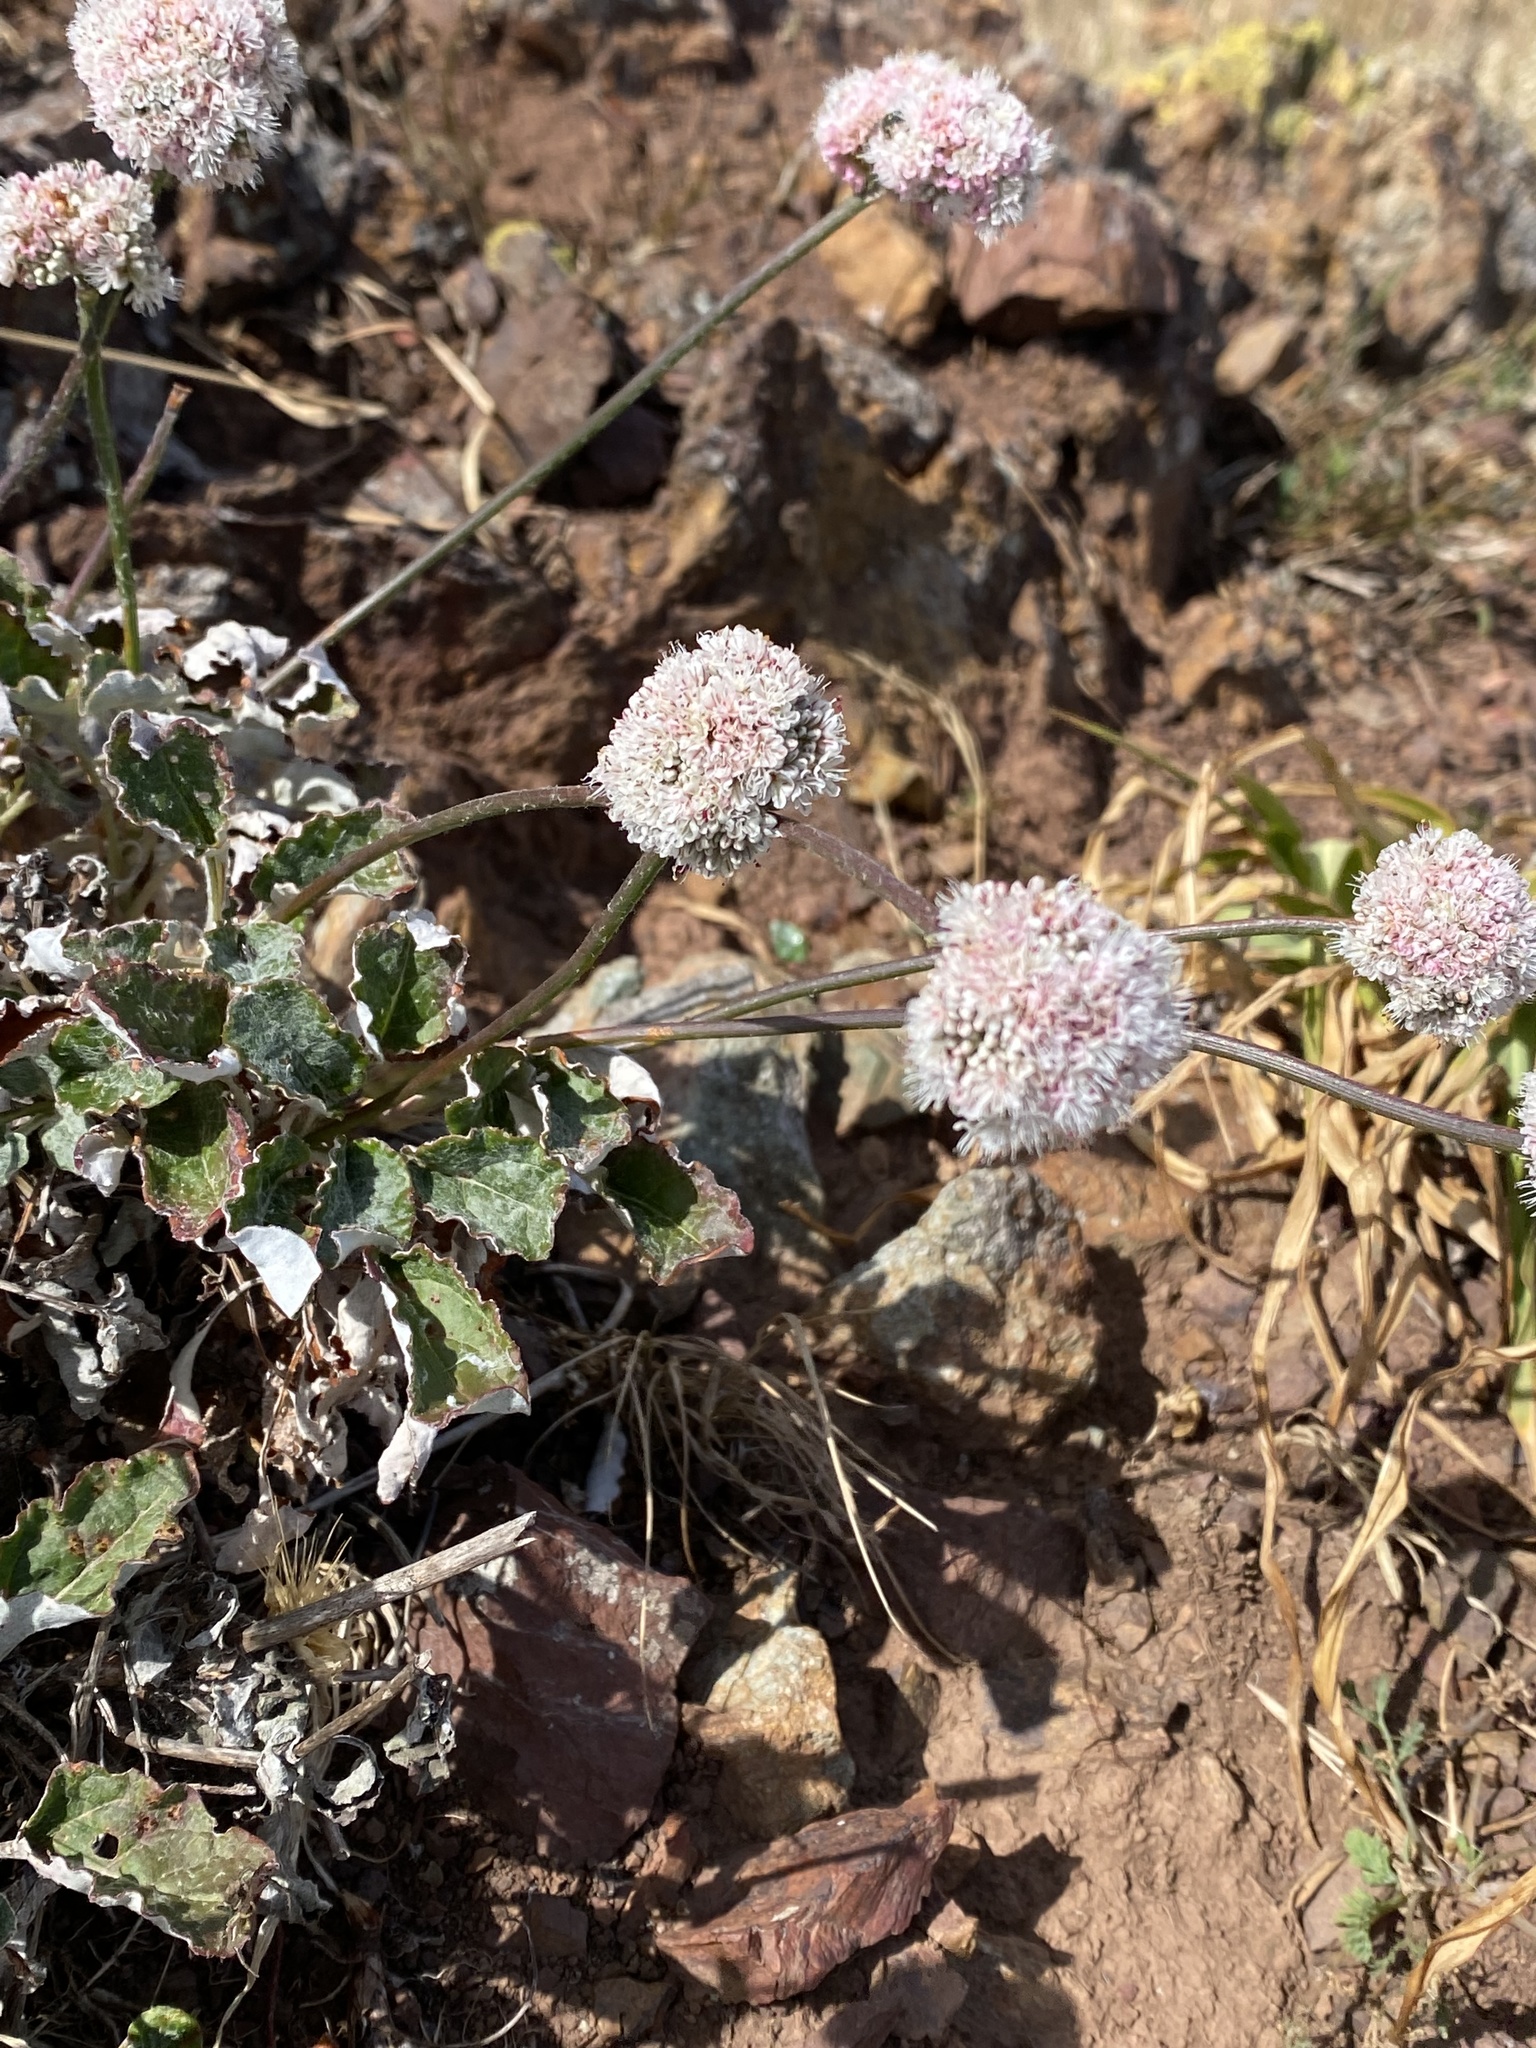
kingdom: Plantae
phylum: Tracheophyta
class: Magnoliopsida
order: Caryophyllales
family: Polygonaceae
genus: Eriogonum
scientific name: Eriogonum latifolium
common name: Seaside wild buckwheat
